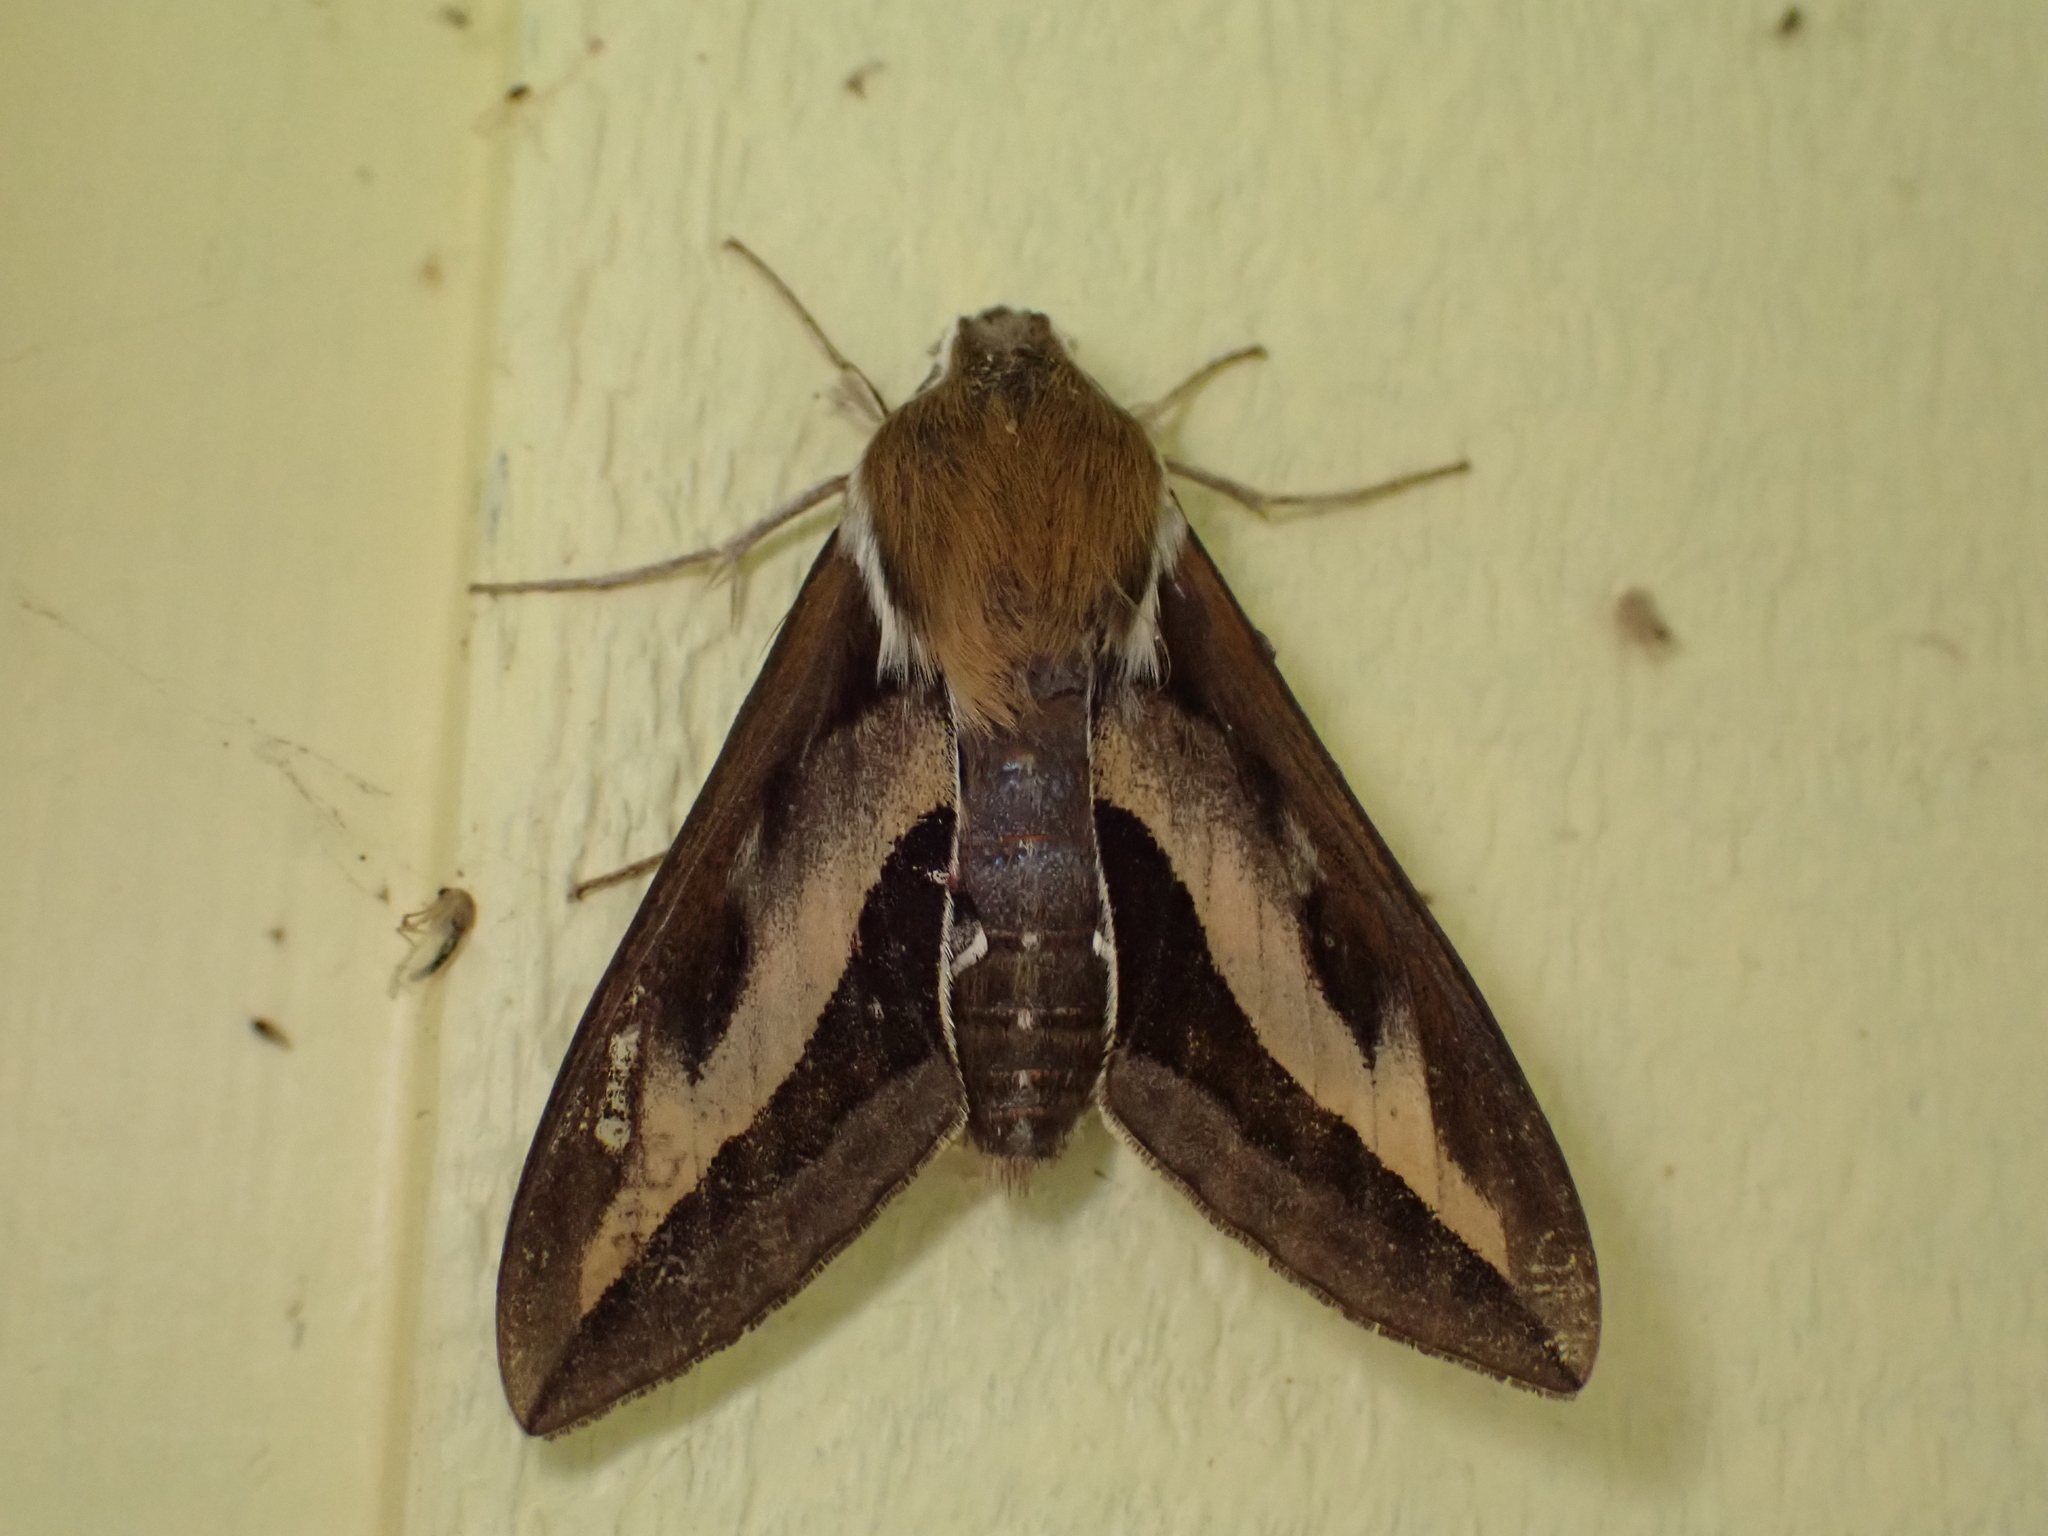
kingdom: Animalia
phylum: Arthropoda
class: Insecta
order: Lepidoptera
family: Sphingidae
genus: Hyles
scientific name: Hyles gallii
